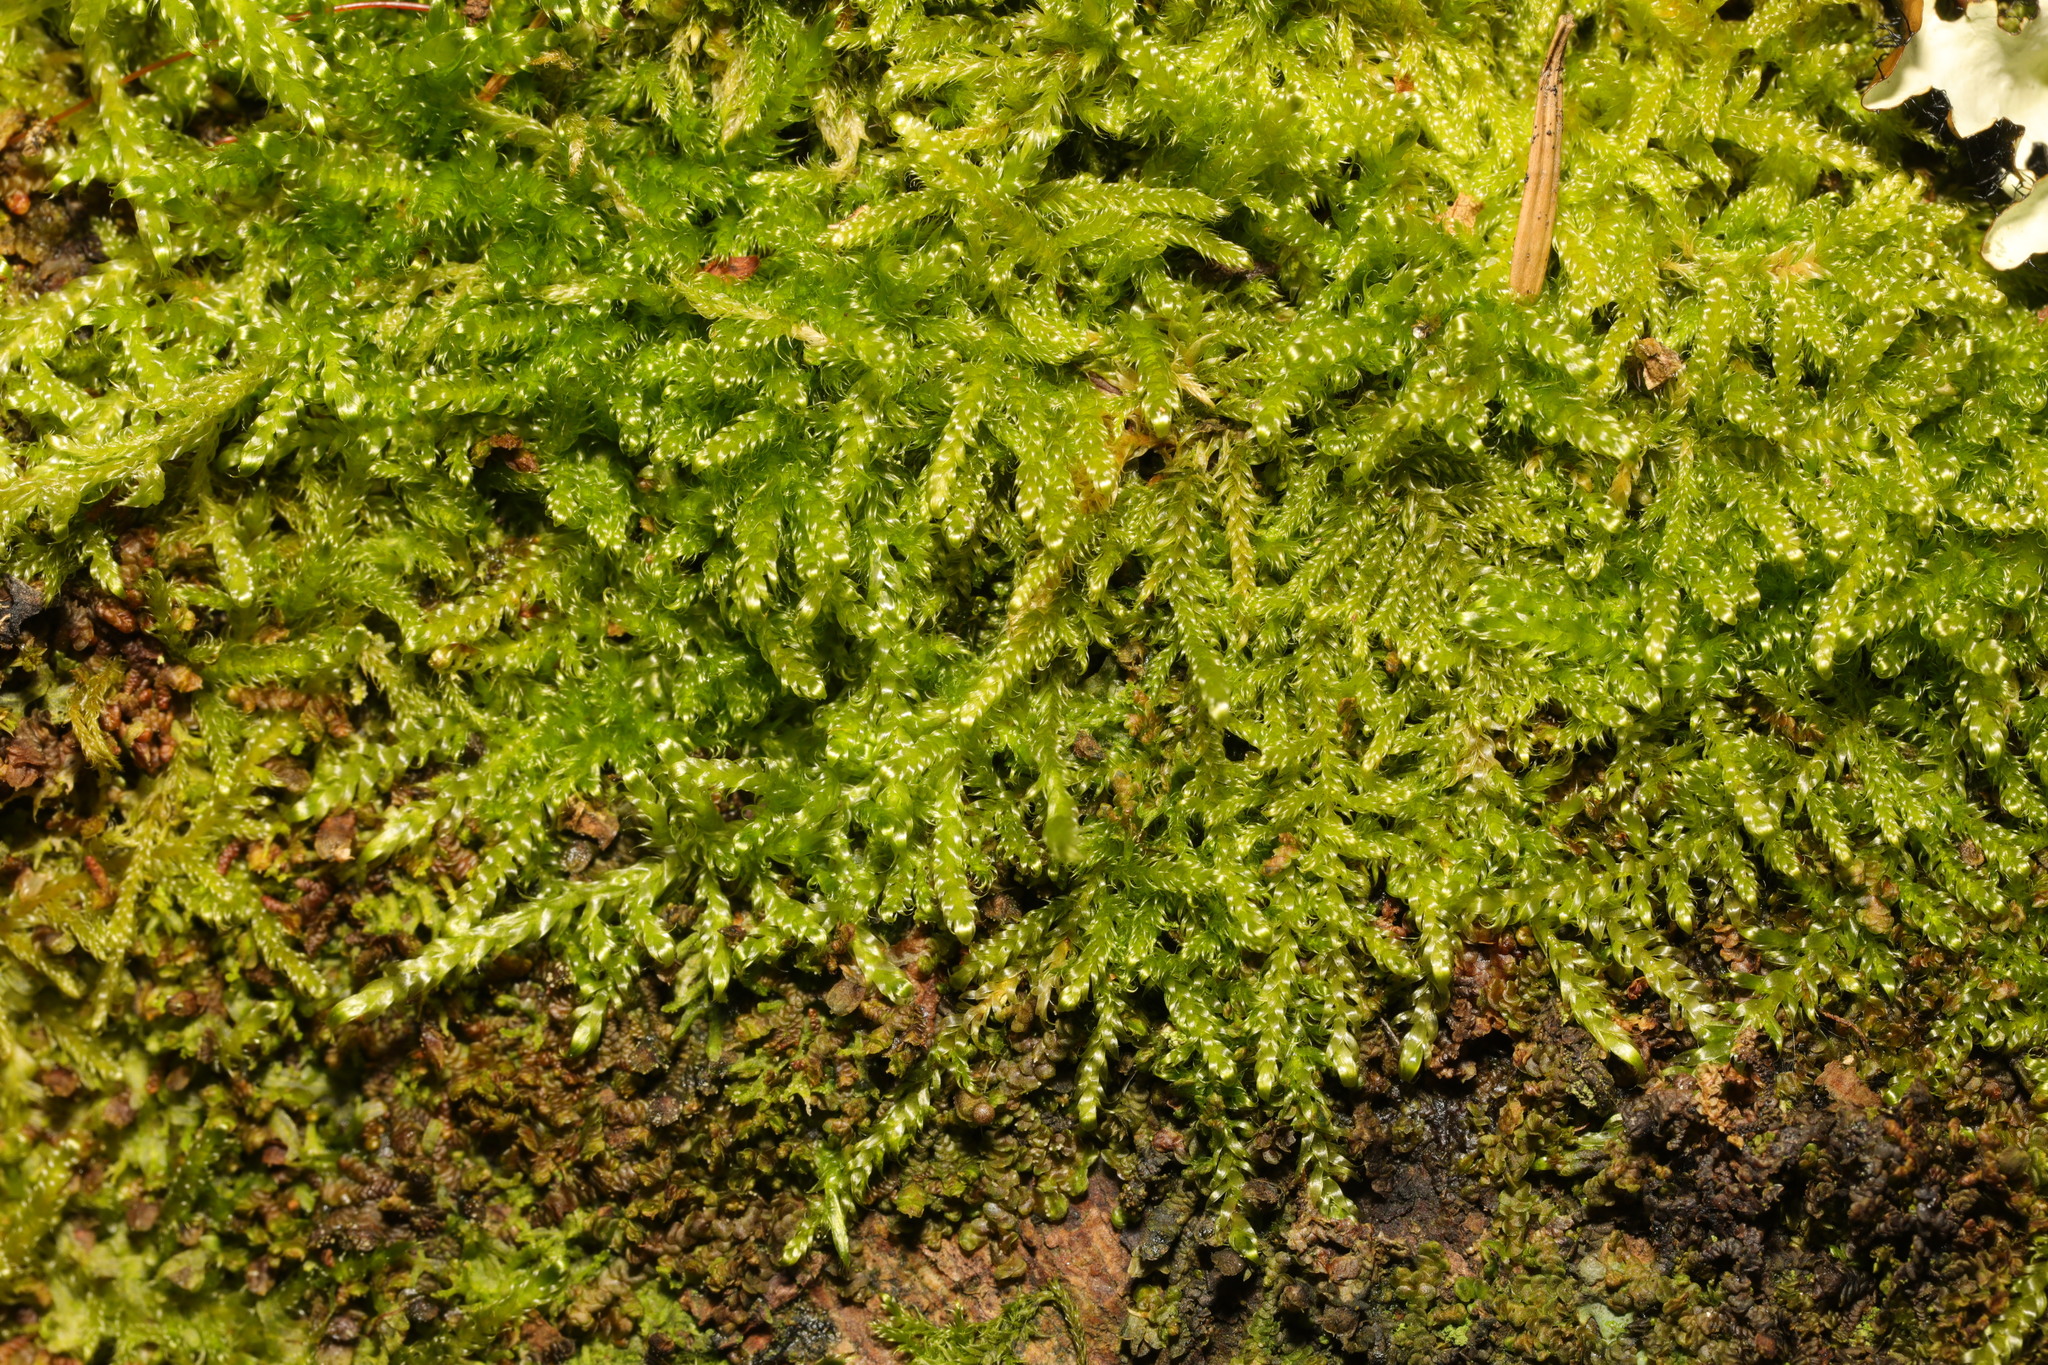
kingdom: Plantae
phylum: Bryophyta
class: Bryopsida
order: Hypnales
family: Hypnaceae
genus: Hypnum
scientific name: Hypnum cupressiforme
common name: Cypress-leaved plait-moss
